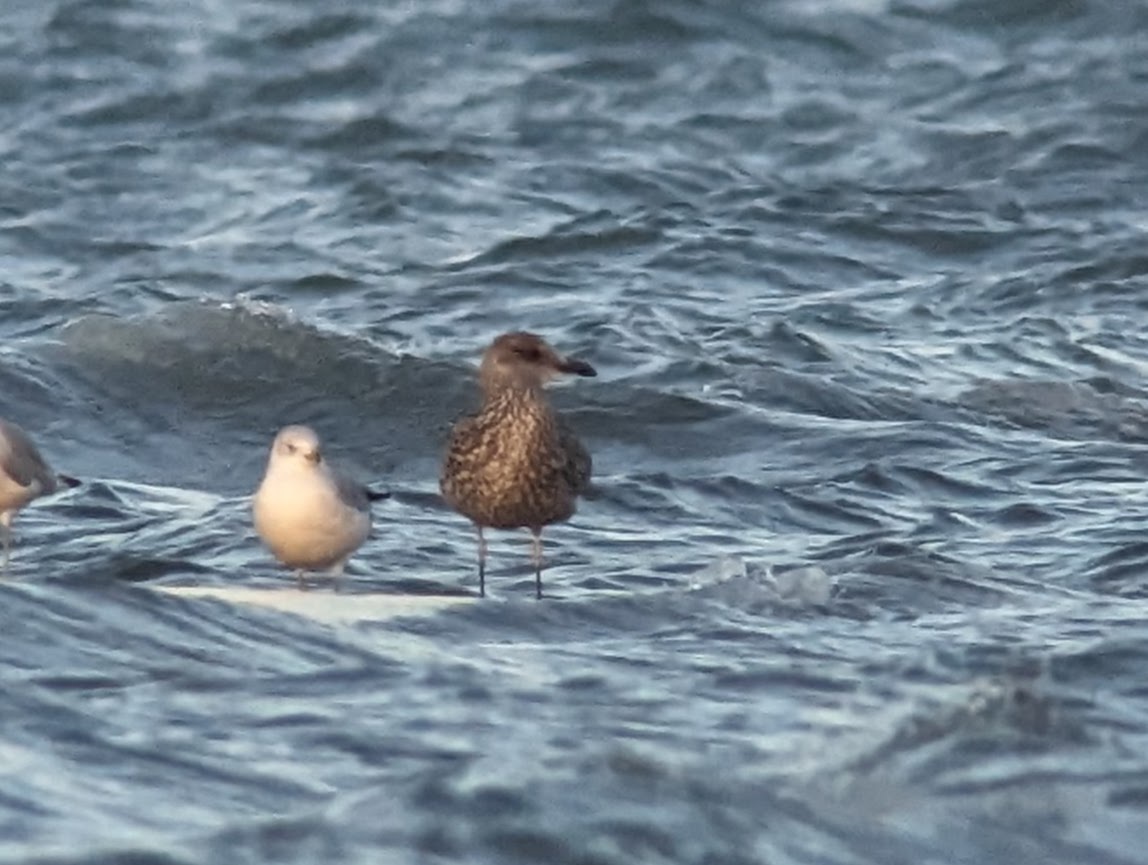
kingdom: Animalia
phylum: Chordata
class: Aves
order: Charadriiformes
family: Laridae
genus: Larus
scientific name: Larus fuscus
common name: Lesser black-backed gull
